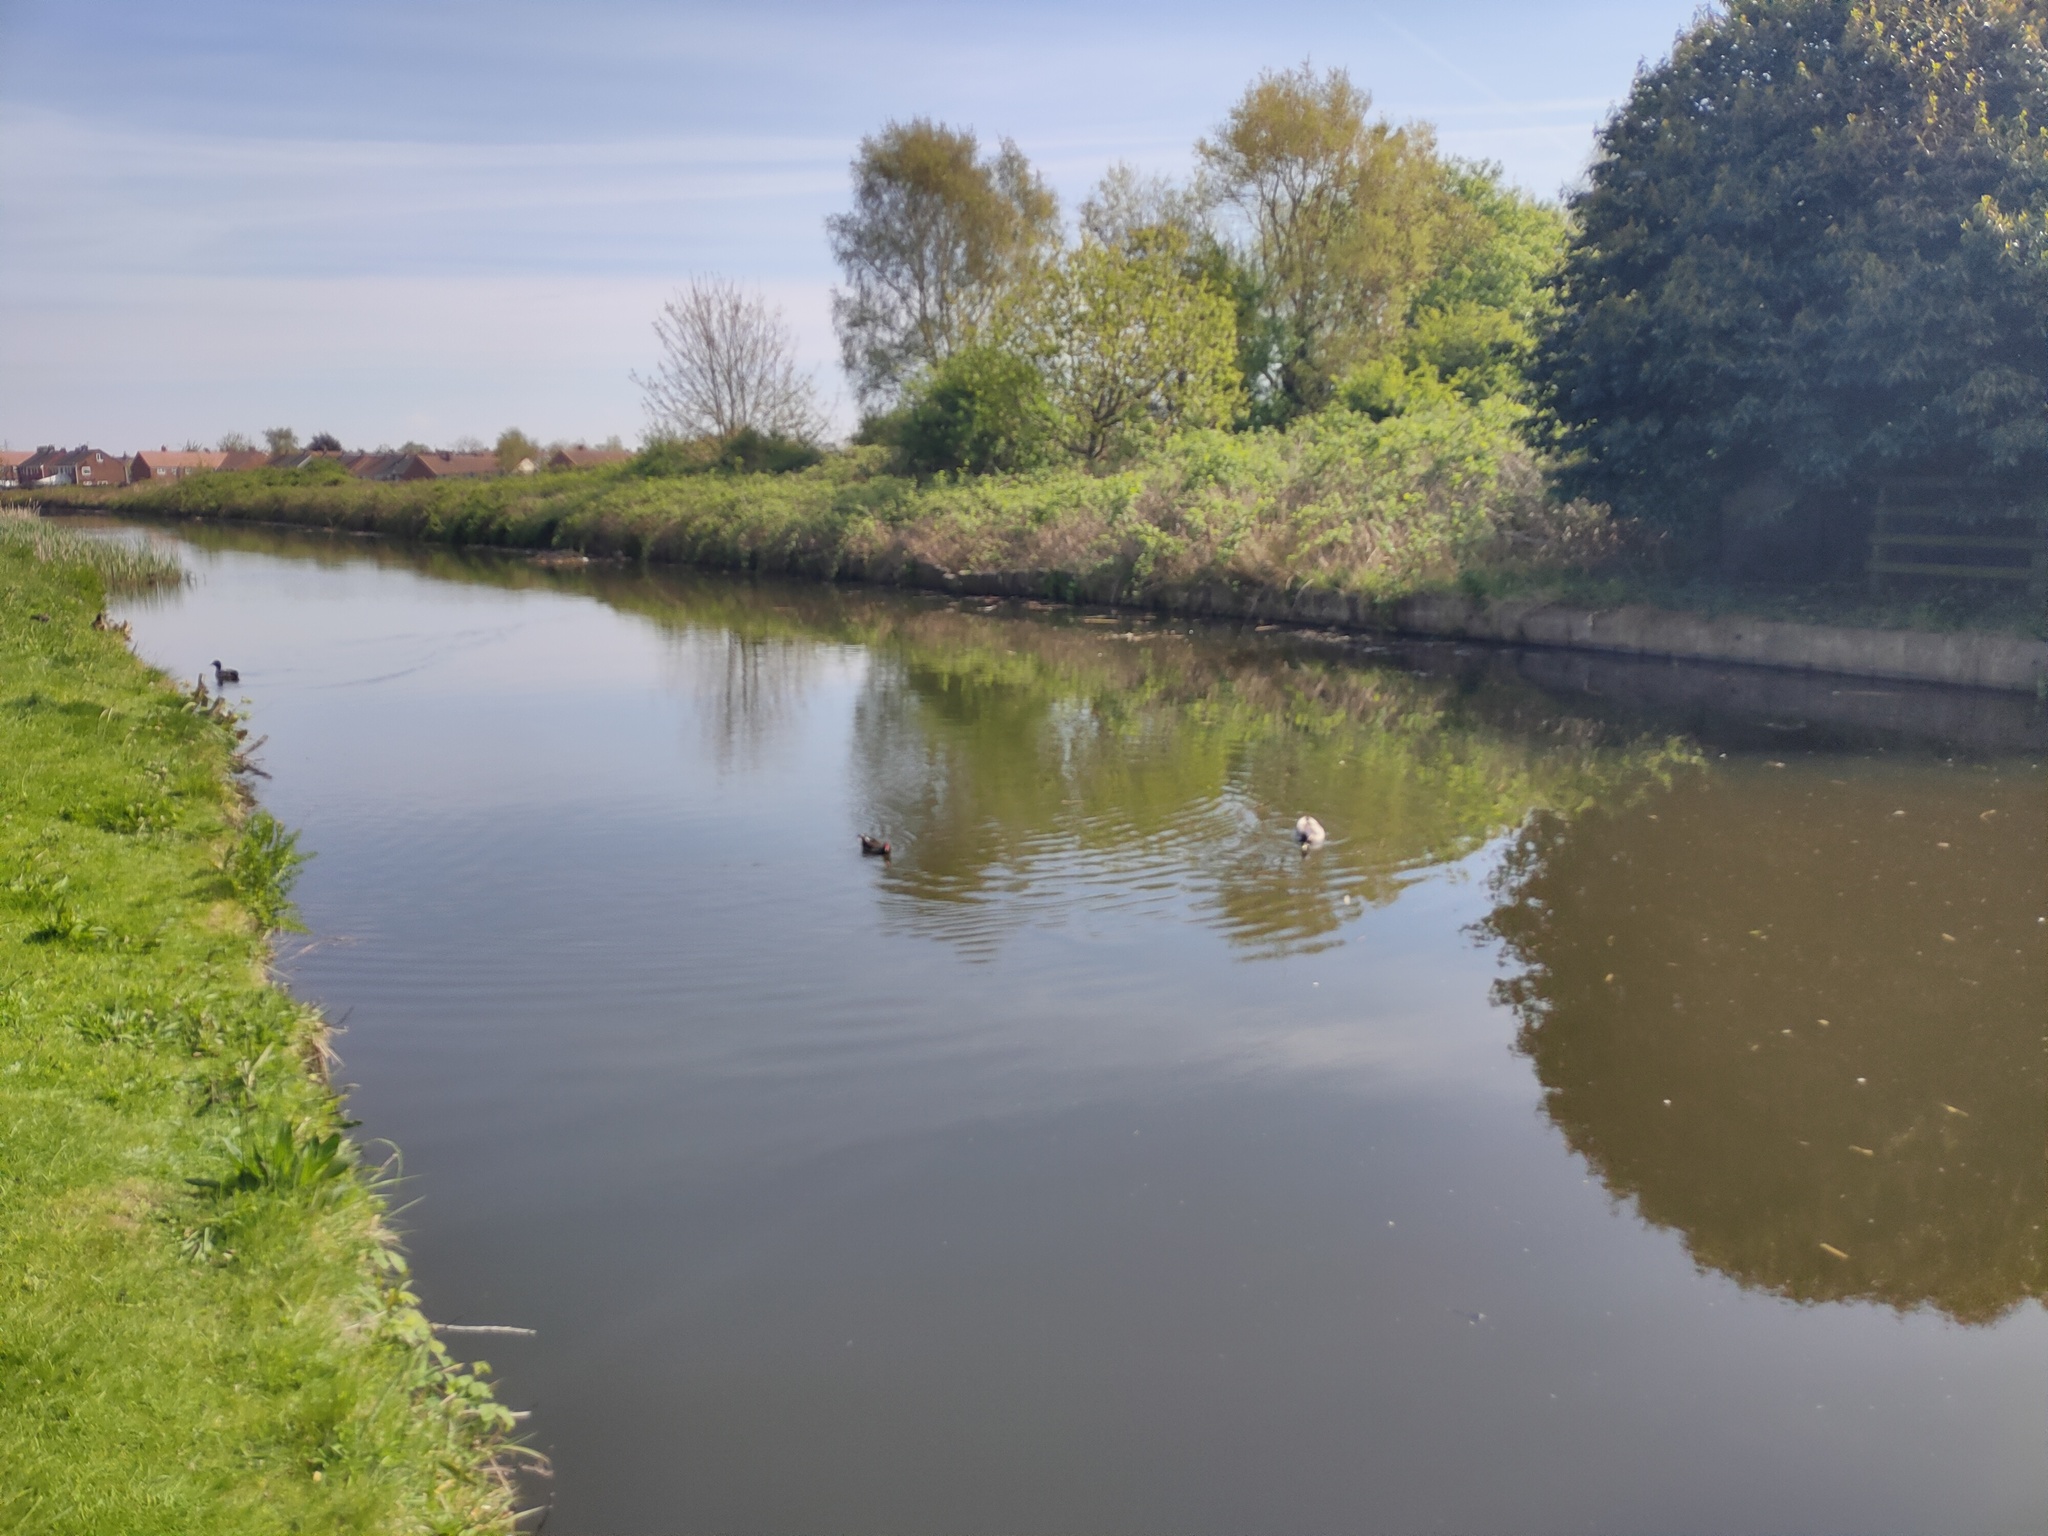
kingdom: Animalia
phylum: Chordata
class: Aves
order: Anseriformes
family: Anatidae
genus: Anas
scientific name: Anas platyrhynchos
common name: Mallard
